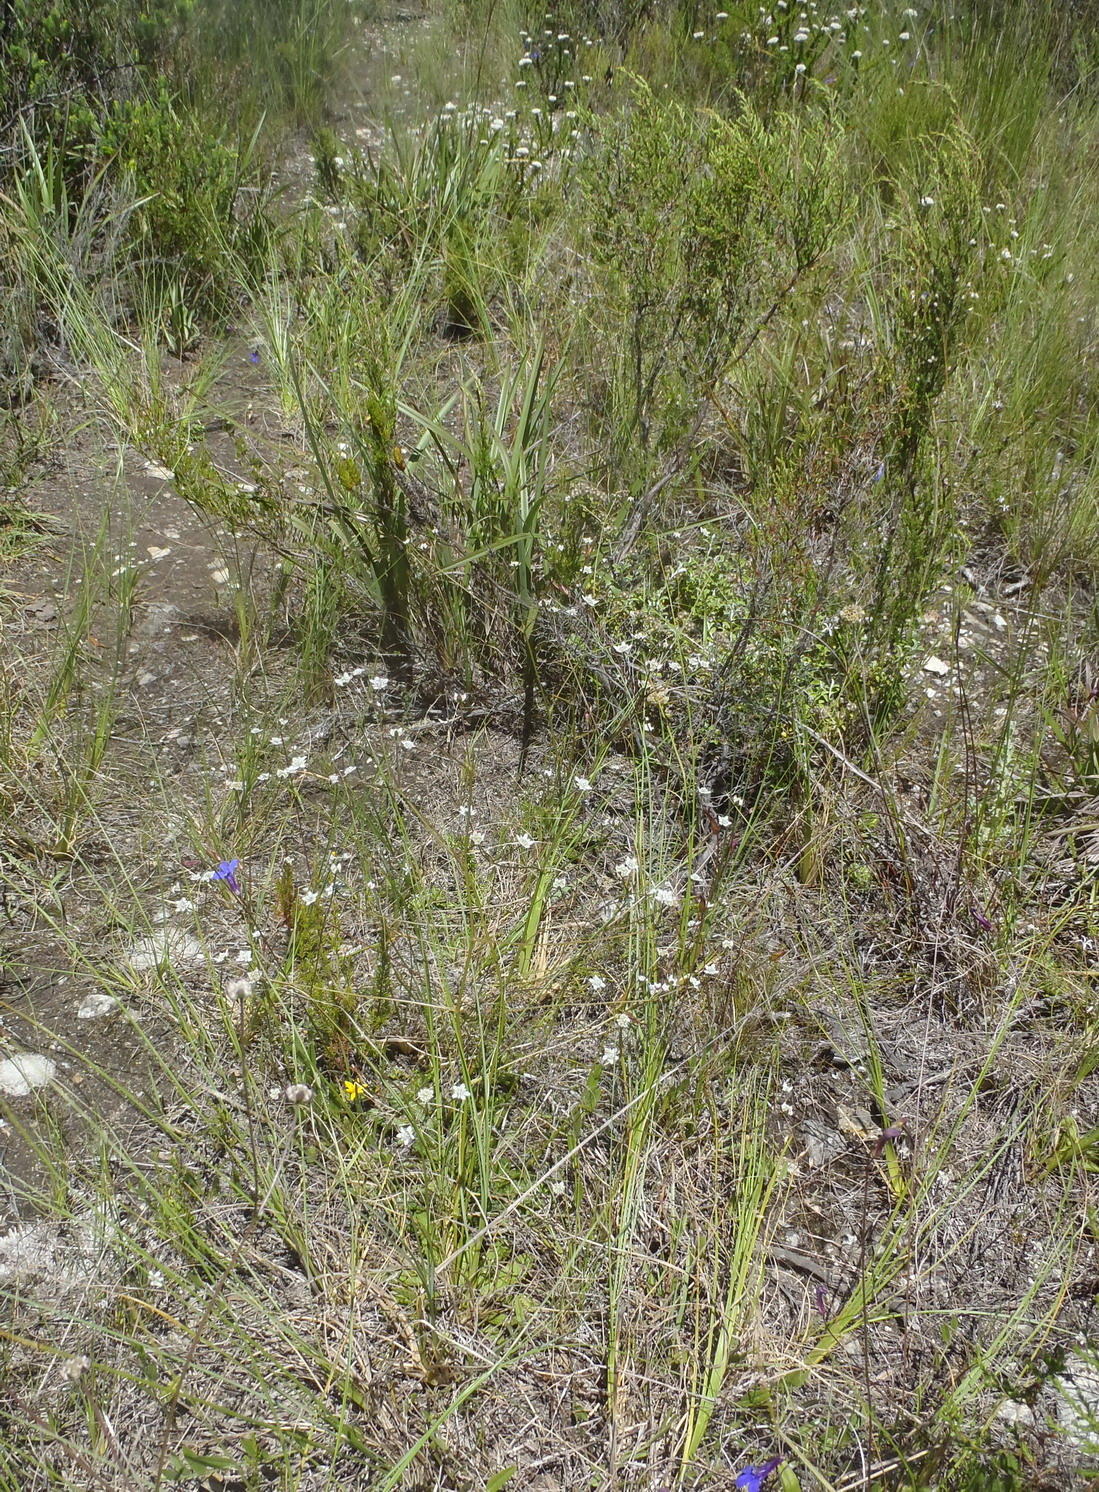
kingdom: Plantae
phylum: Tracheophyta
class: Magnoliopsida
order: Apiales
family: Apiaceae
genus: Alepidea
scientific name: Alepidea capensis
